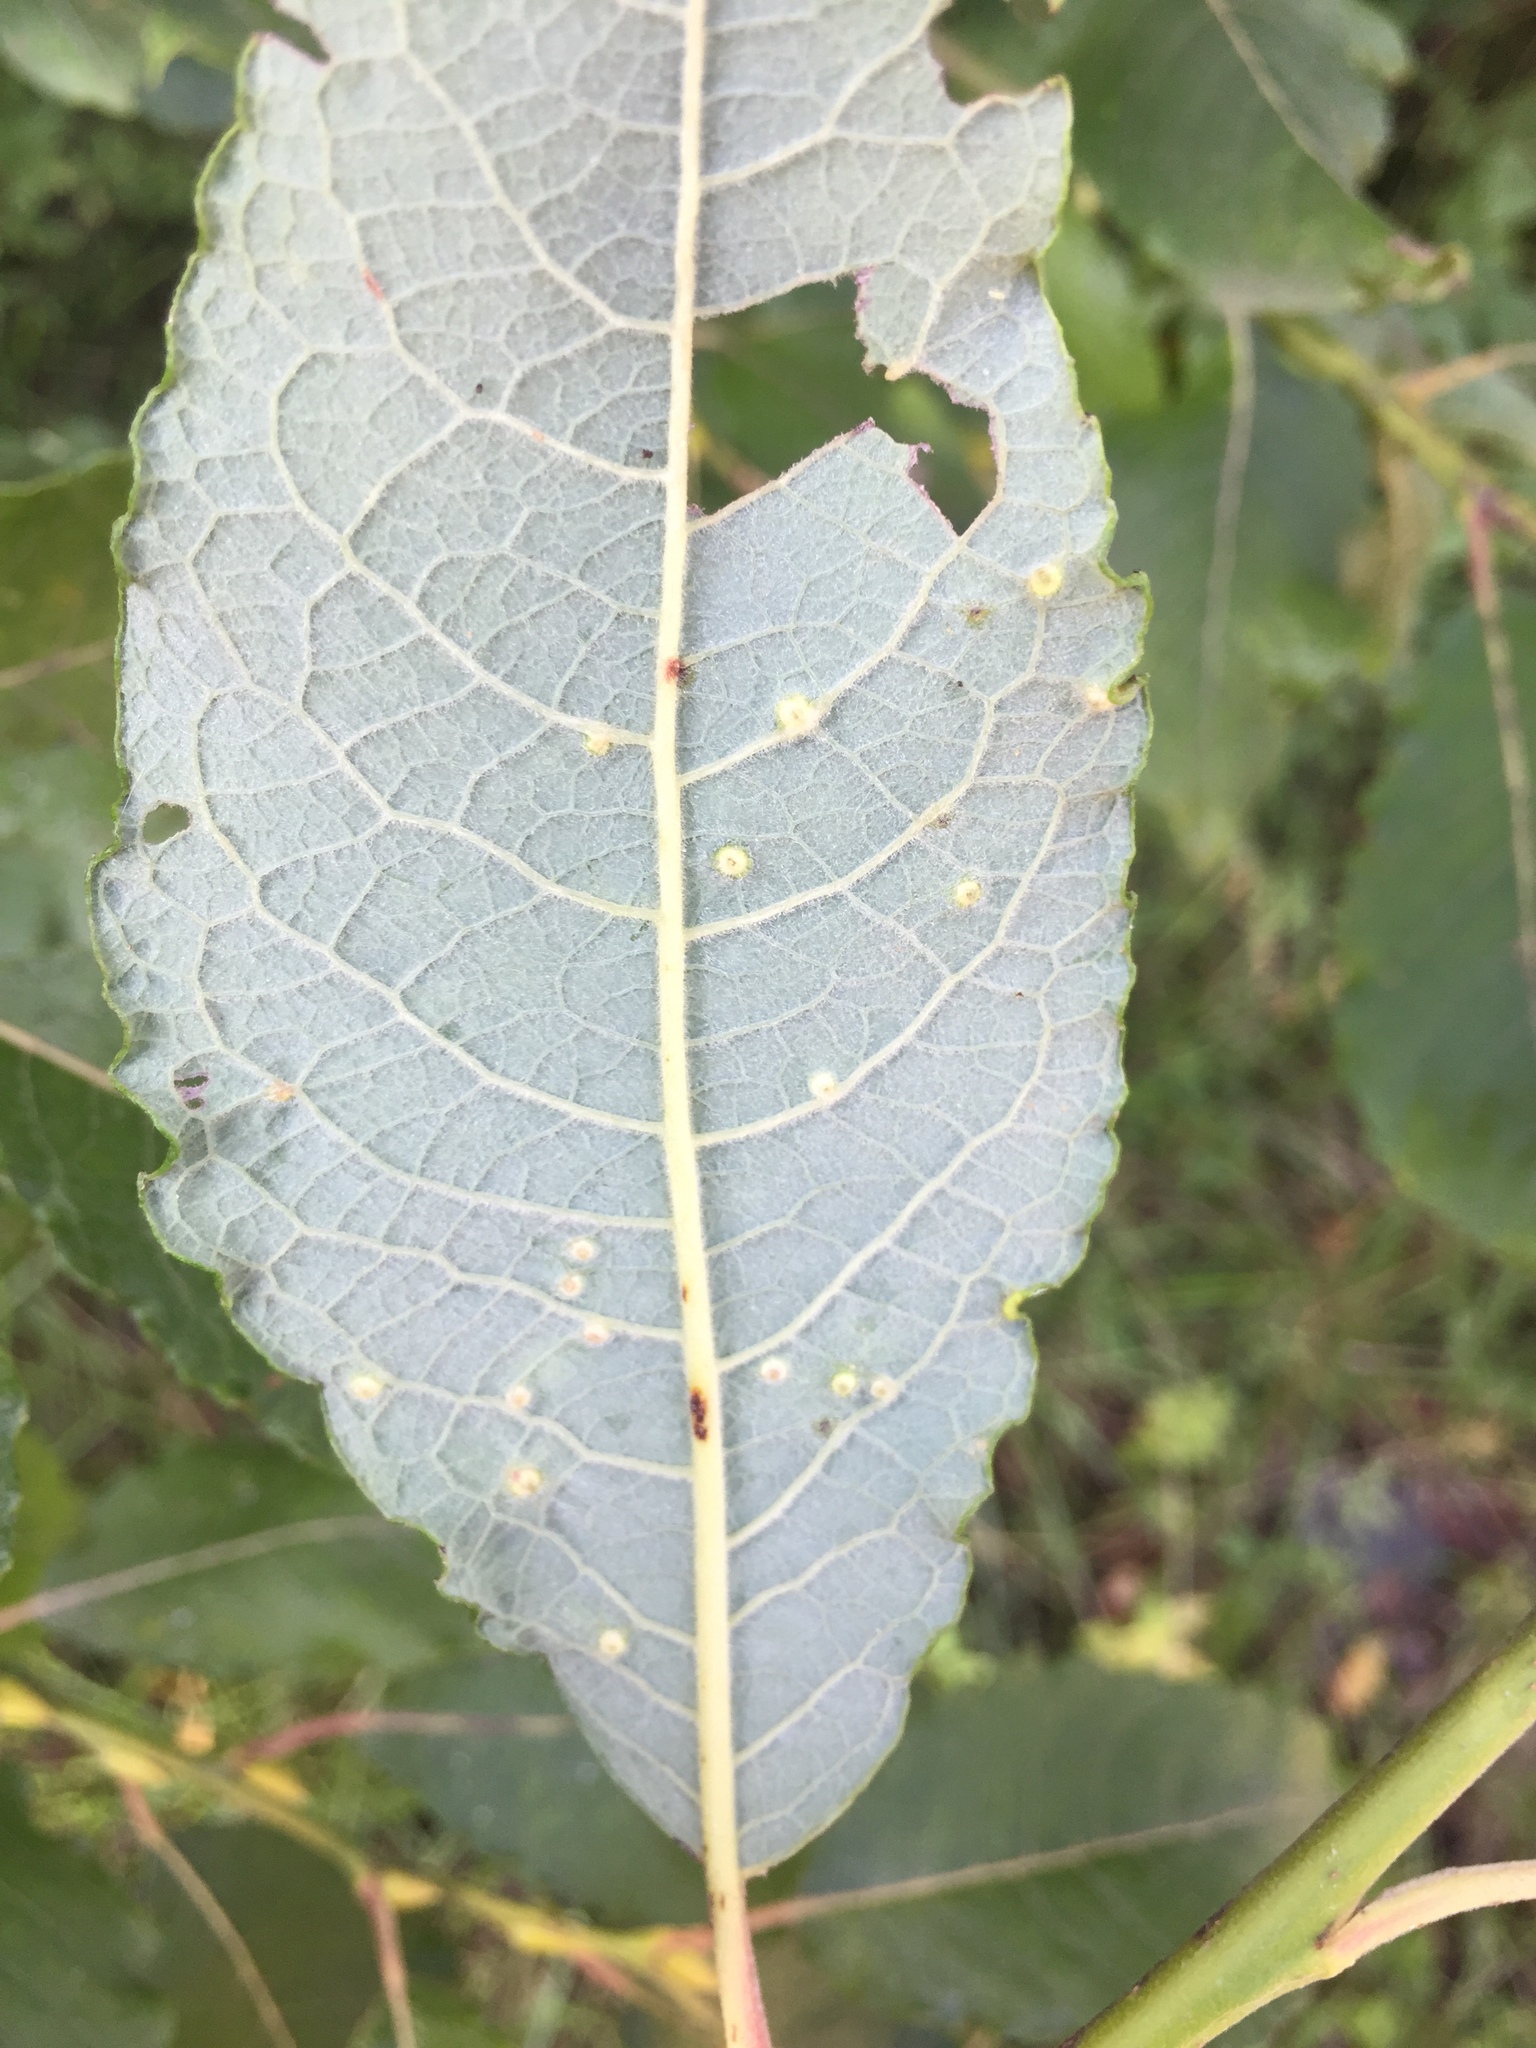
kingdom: Animalia
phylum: Arthropoda
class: Insecta
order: Diptera
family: Cecidomyiidae
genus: Iteomyia
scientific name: Iteomyia capreae
